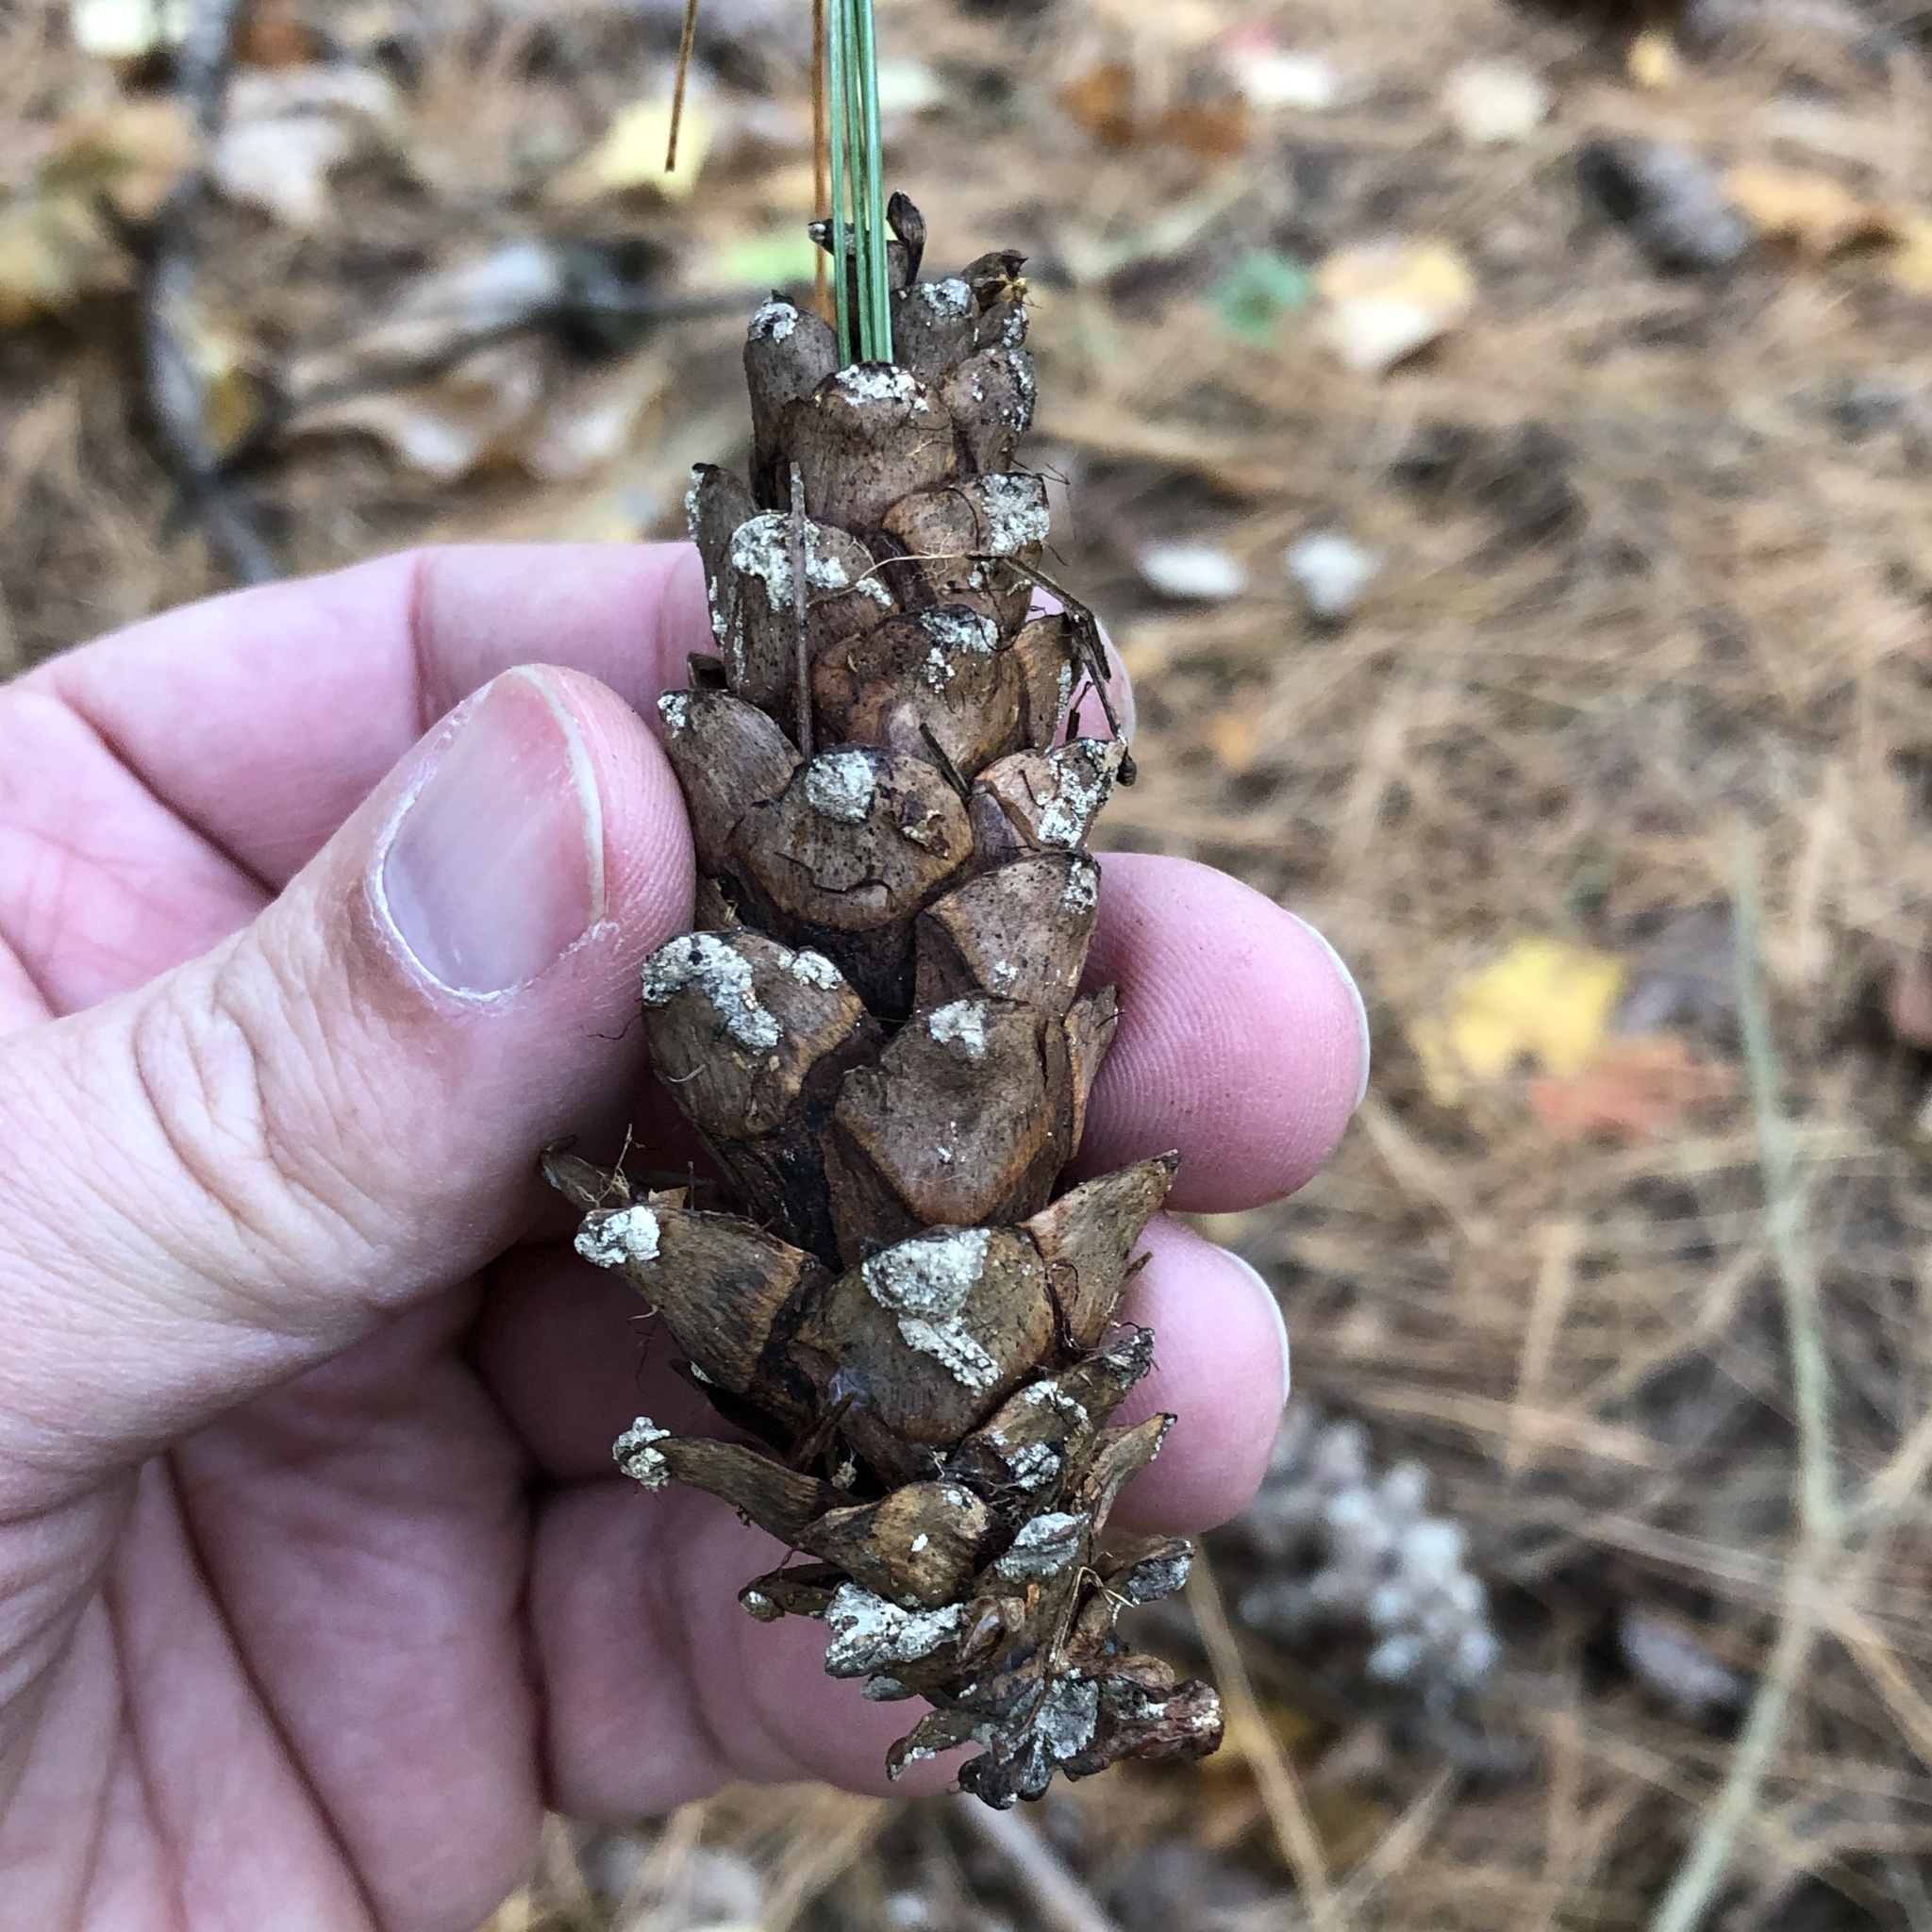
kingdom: Plantae
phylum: Tracheophyta
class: Pinopsida
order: Pinales
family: Pinaceae
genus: Pinus
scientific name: Pinus strobus
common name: Weymouth pine
